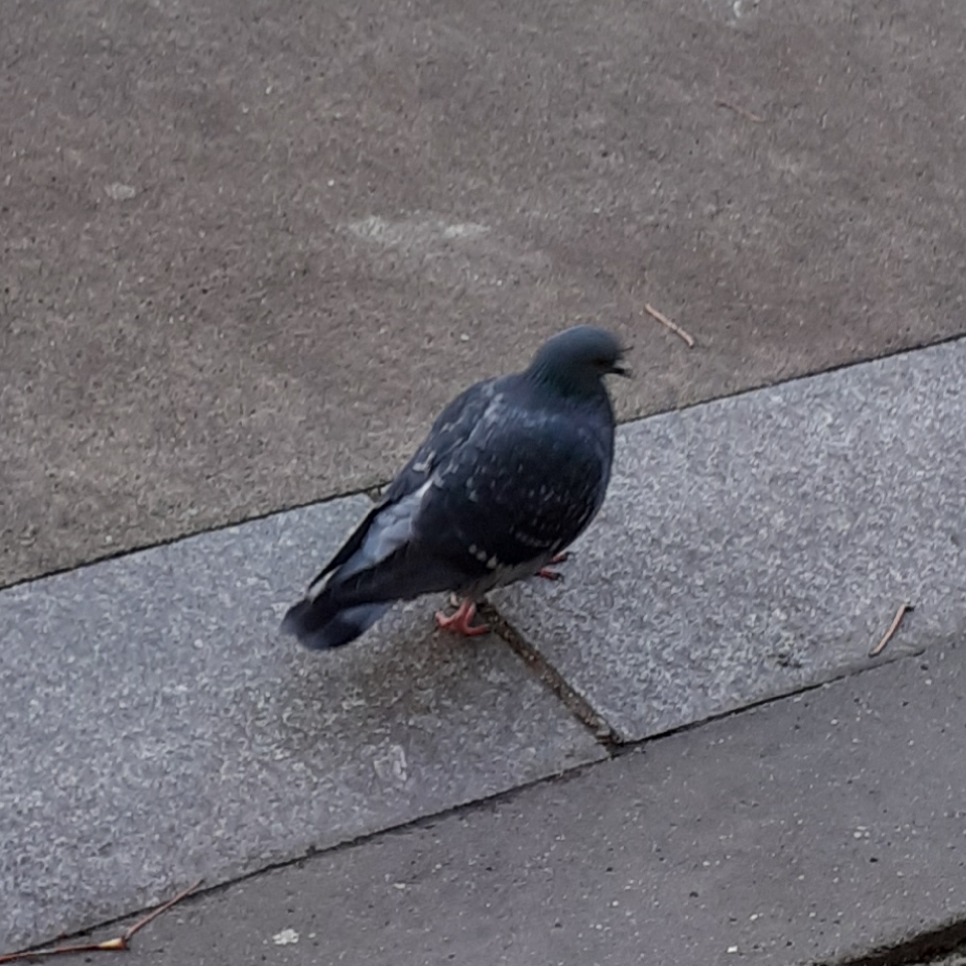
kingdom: Animalia
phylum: Chordata
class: Aves
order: Columbiformes
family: Columbidae
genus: Columba
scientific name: Columba livia
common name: Rock pigeon
